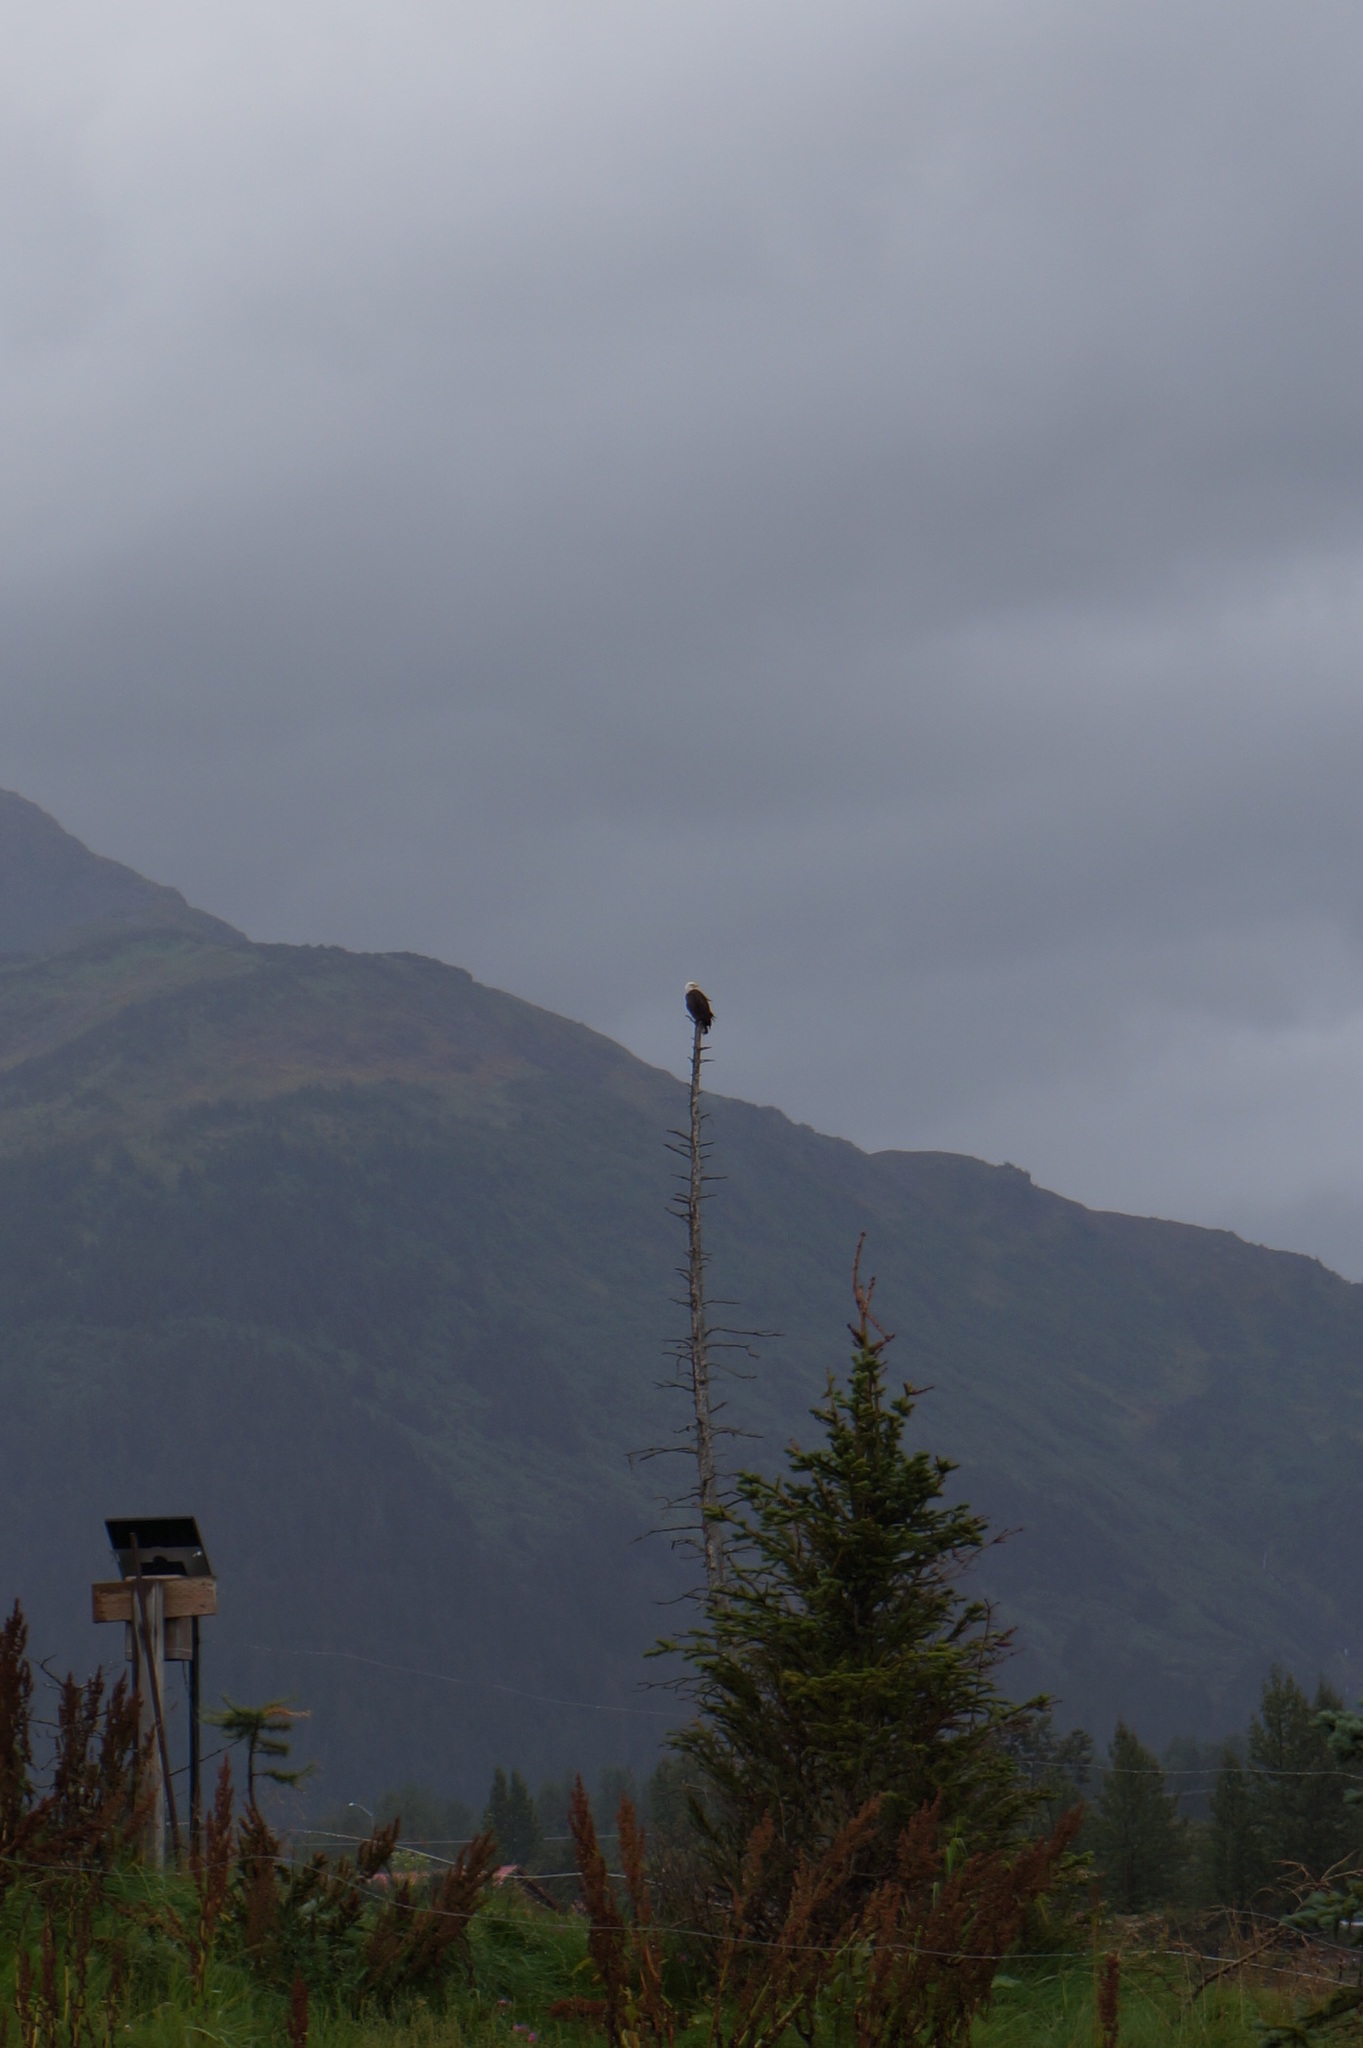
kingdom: Animalia
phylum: Chordata
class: Aves
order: Accipitriformes
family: Accipitridae
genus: Haliaeetus
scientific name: Haliaeetus leucocephalus
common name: Bald eagle
